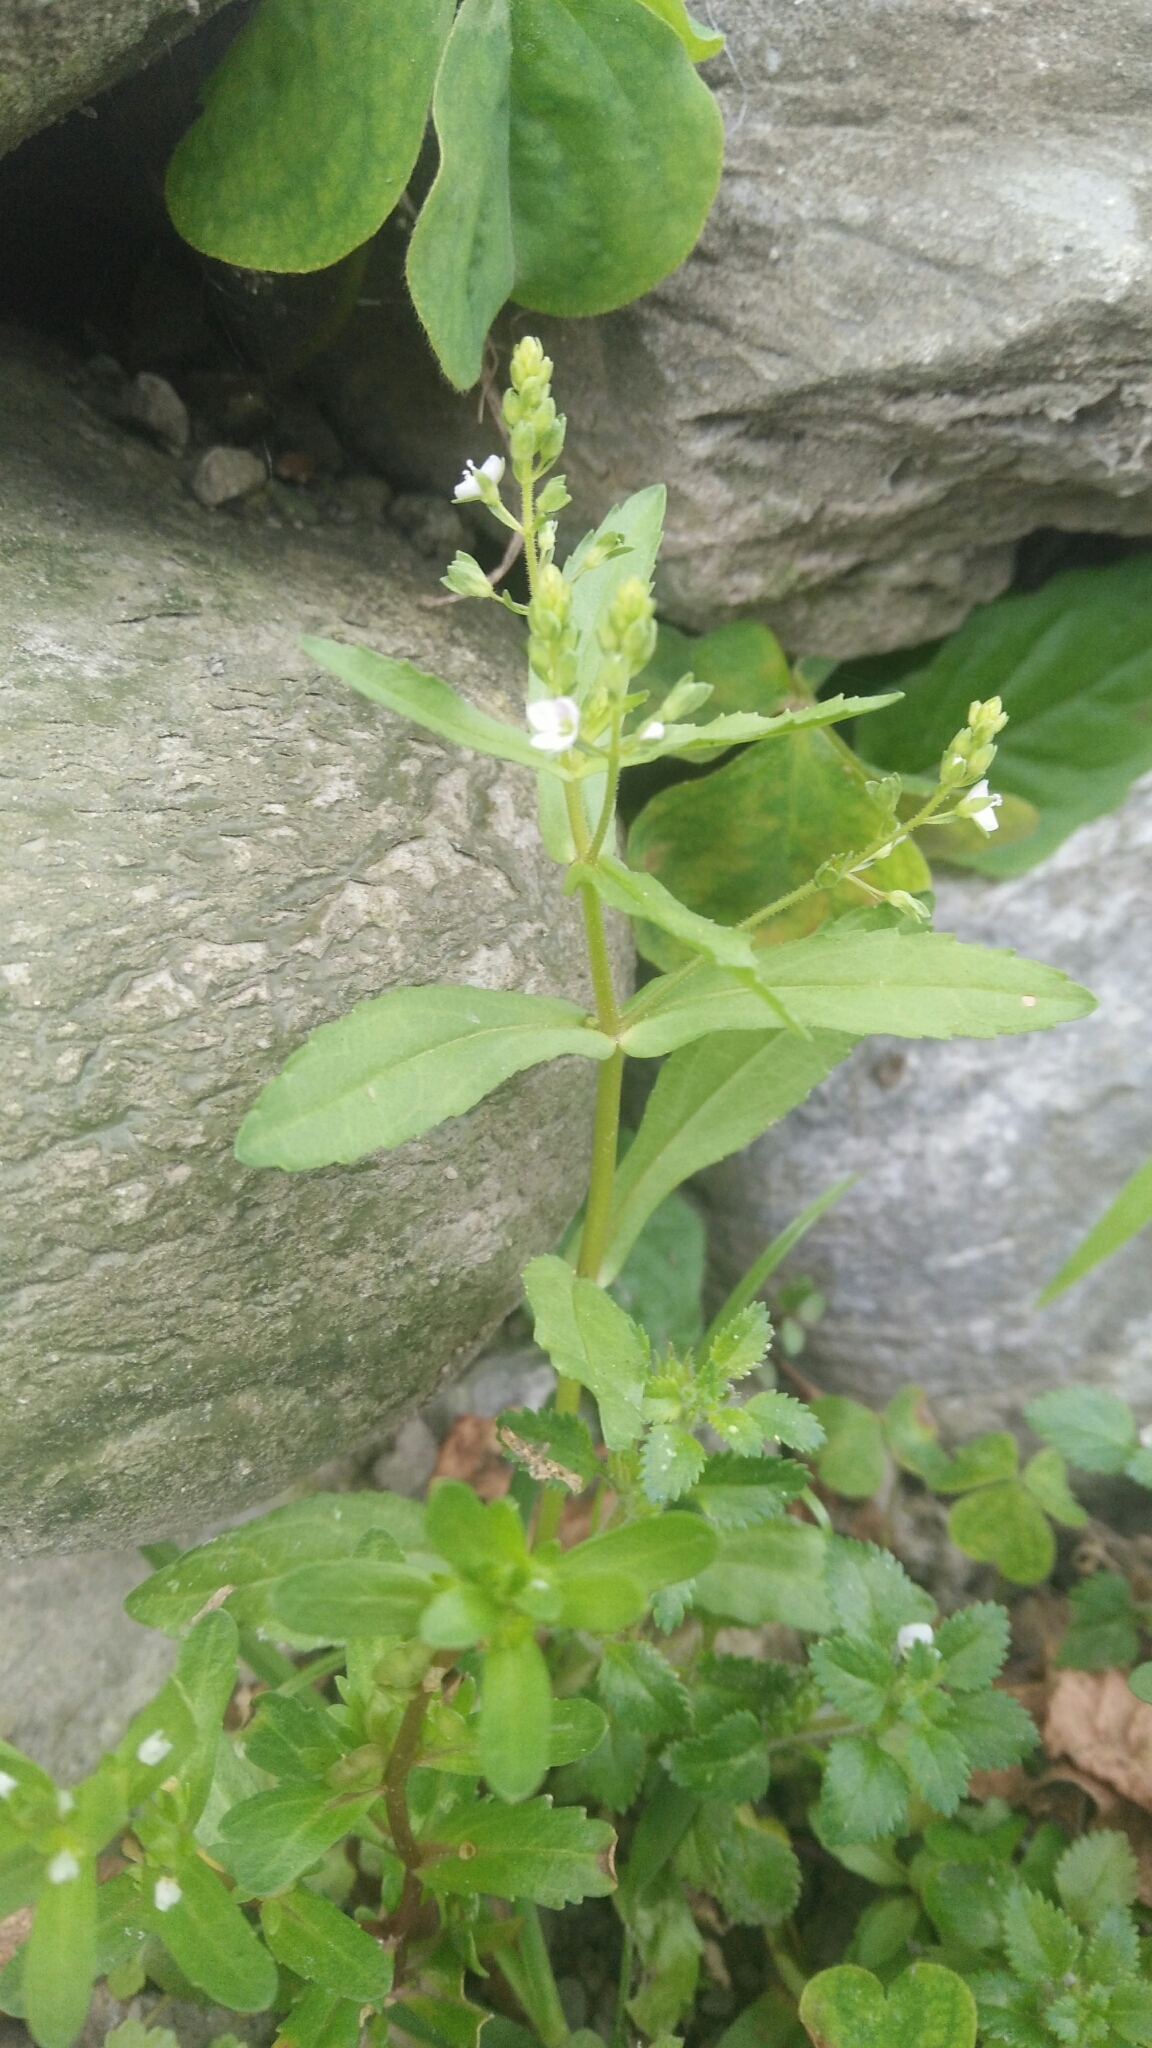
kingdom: Plantae
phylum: Tracheophyta
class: Magnoliopsida
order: Lamiales
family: Plantaginaceae
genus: Veronica
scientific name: Veronica undulata
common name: Undulate speedwell
